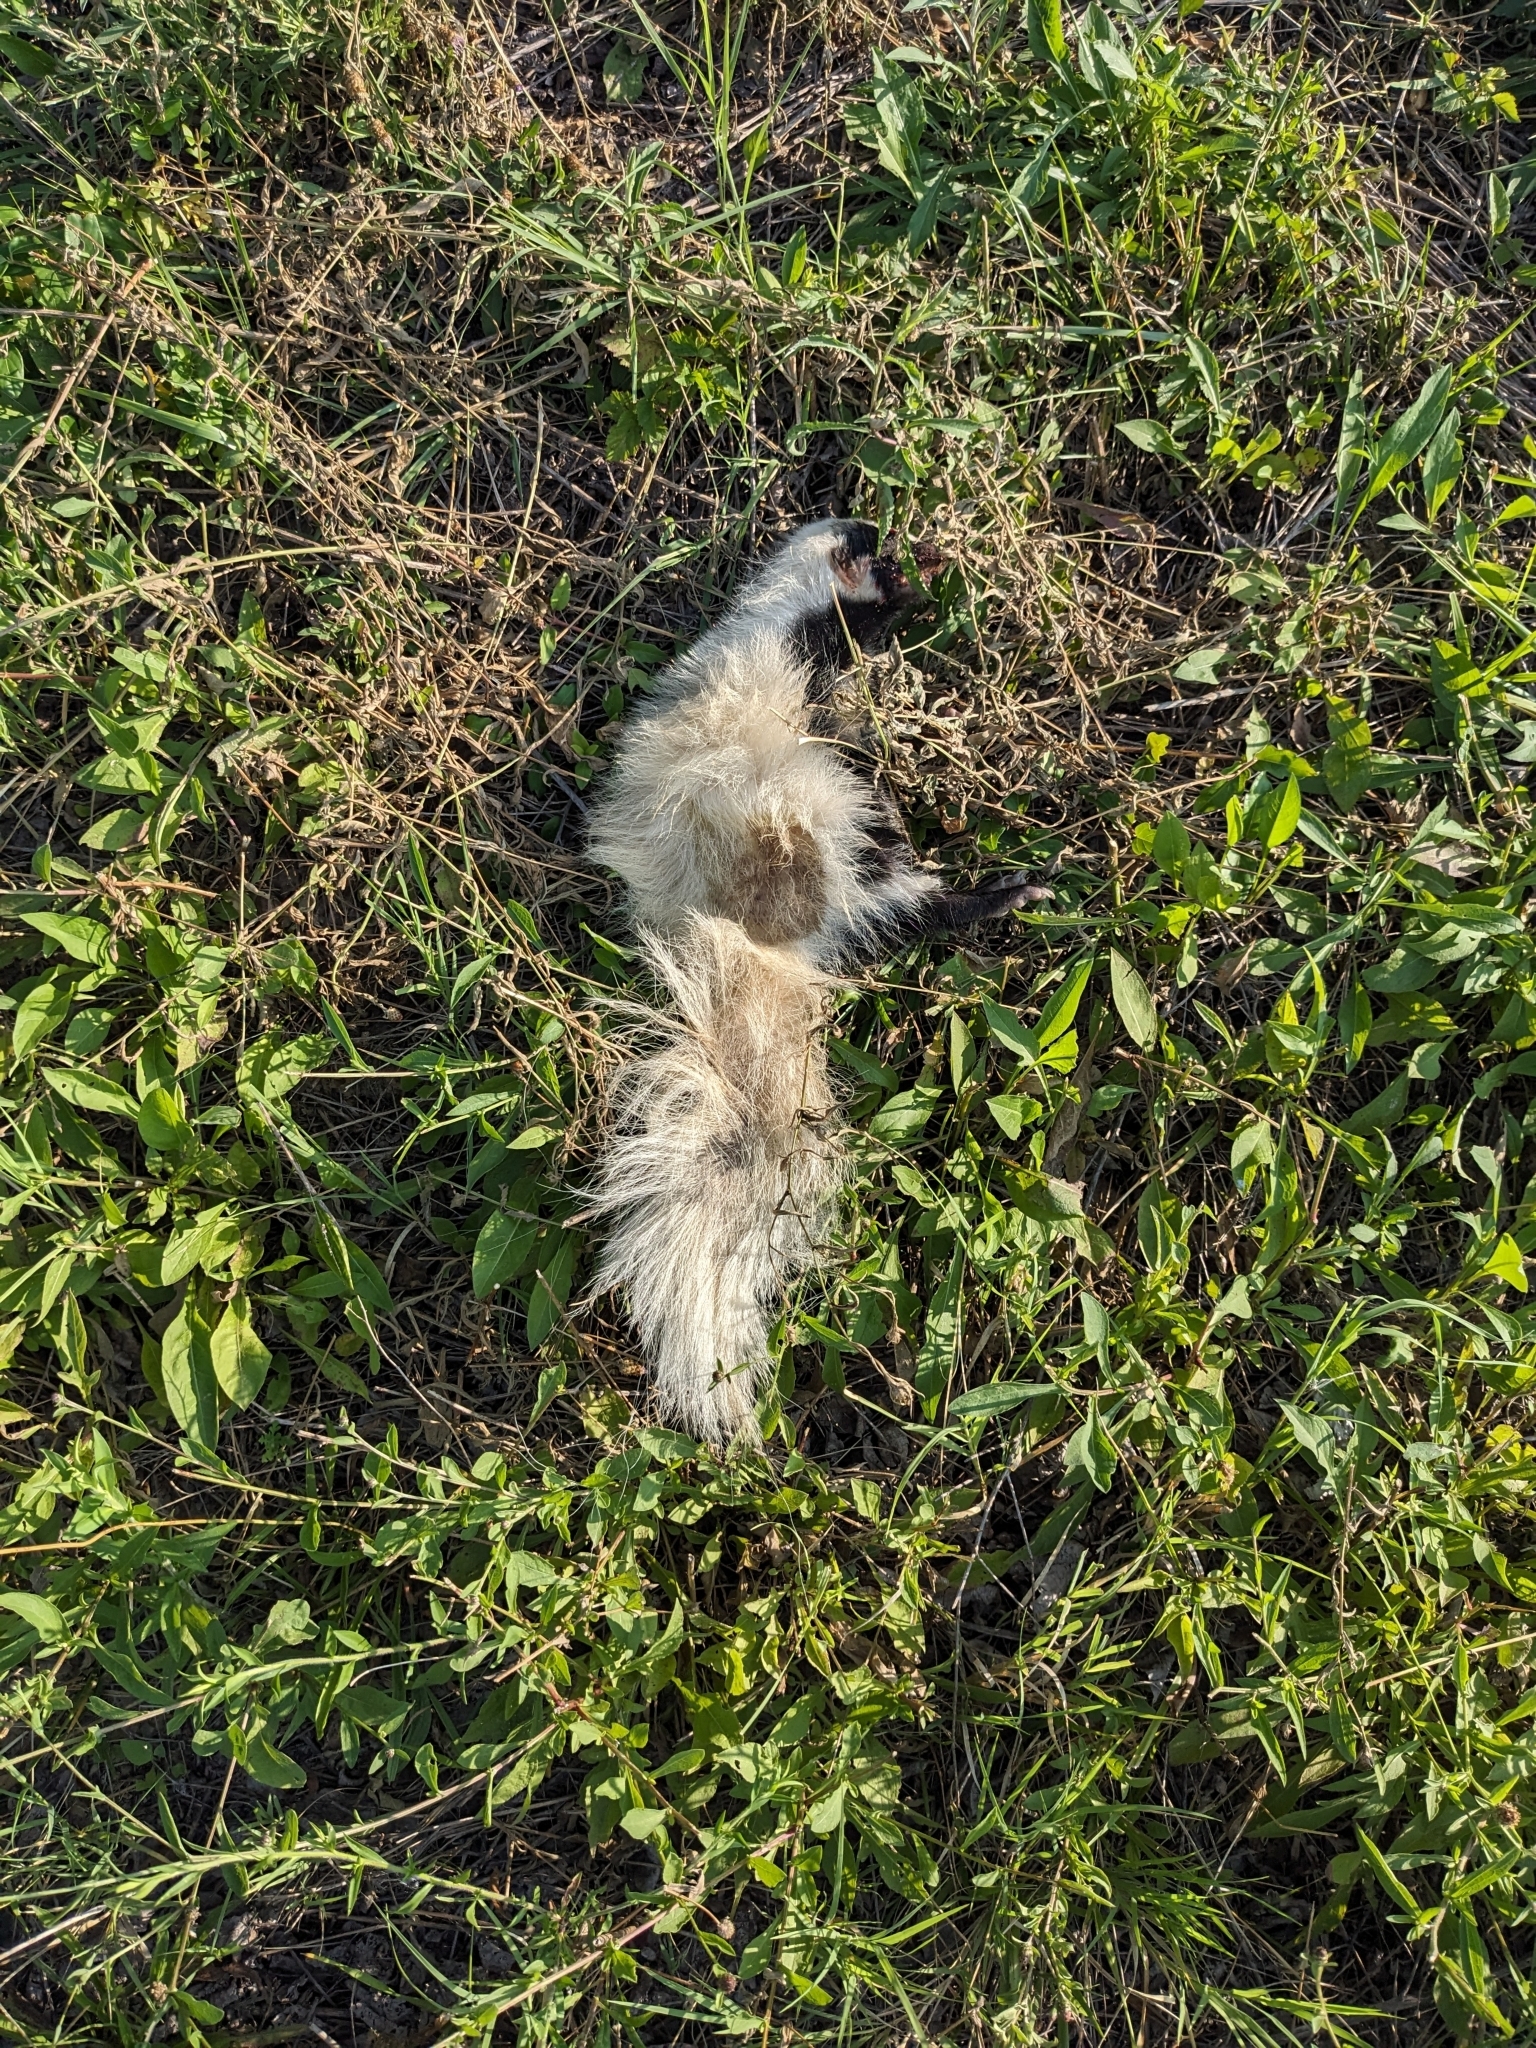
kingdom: Animalia
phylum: Chordata
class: Mammalia
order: Carnivora
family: Mephitidae
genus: Mephitis
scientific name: Mephitis mephitis
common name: Striped skunk
